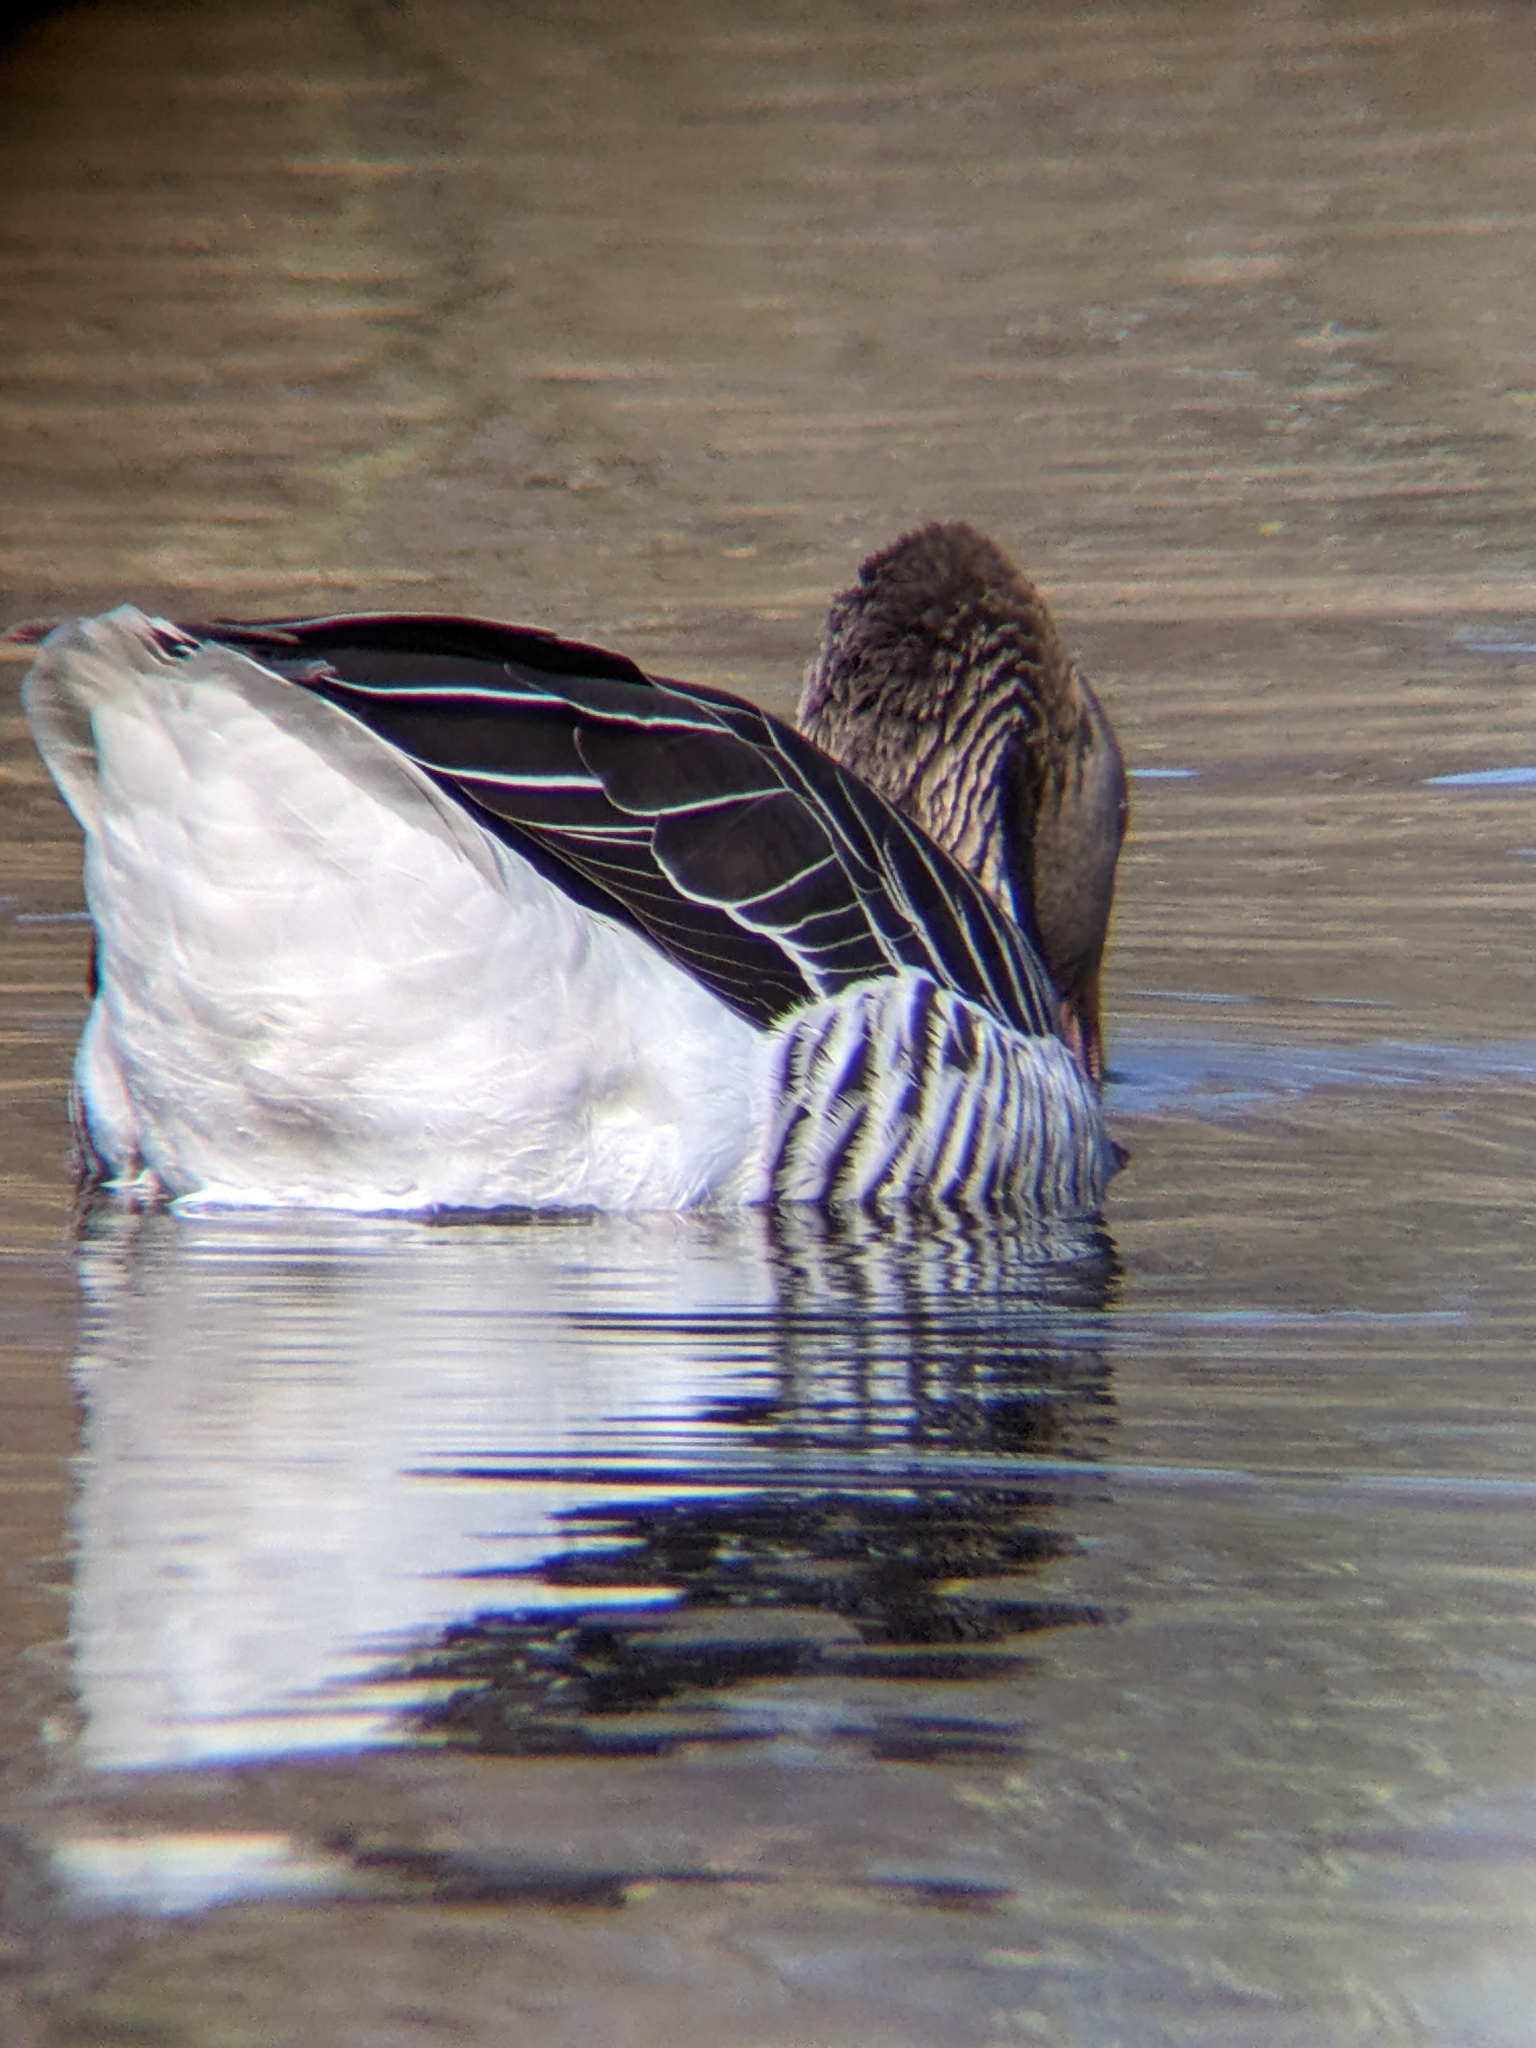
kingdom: Animalia
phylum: Chordata
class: Aves
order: Anseriformes
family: Anatidae
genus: Anser
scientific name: Anser anser
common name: Greylag goose
